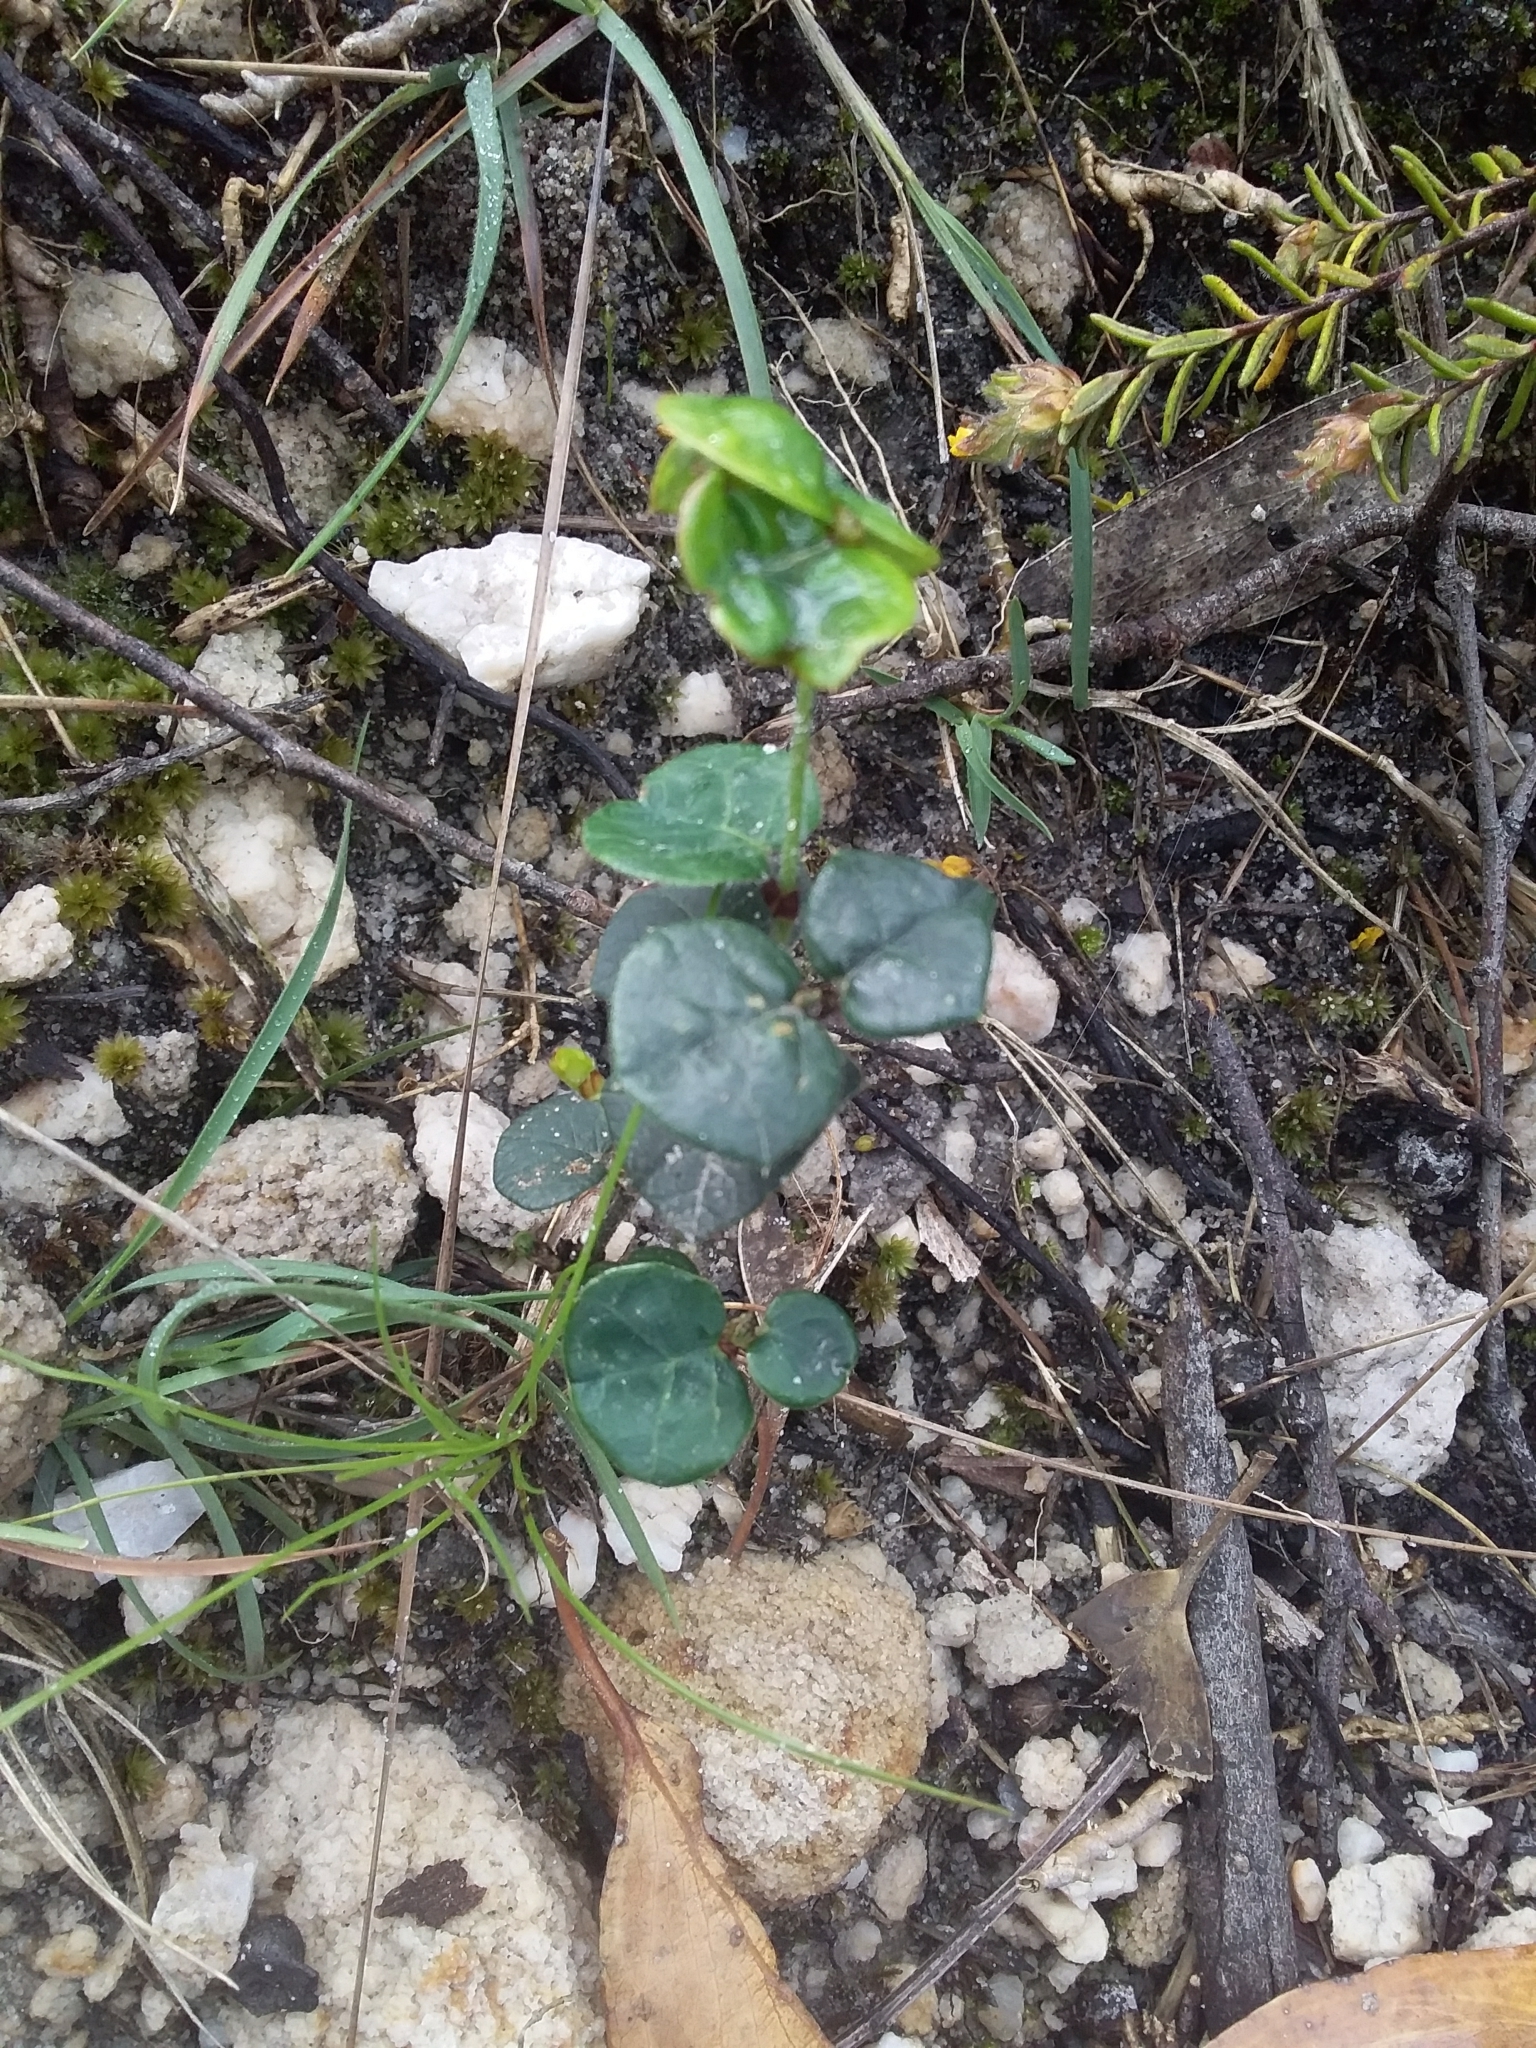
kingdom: Plantae
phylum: Tracheophyta
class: Magnoliopsida
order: Fabales
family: Fabaceae
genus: Platylobium
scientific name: Platylobium obtusangulum
